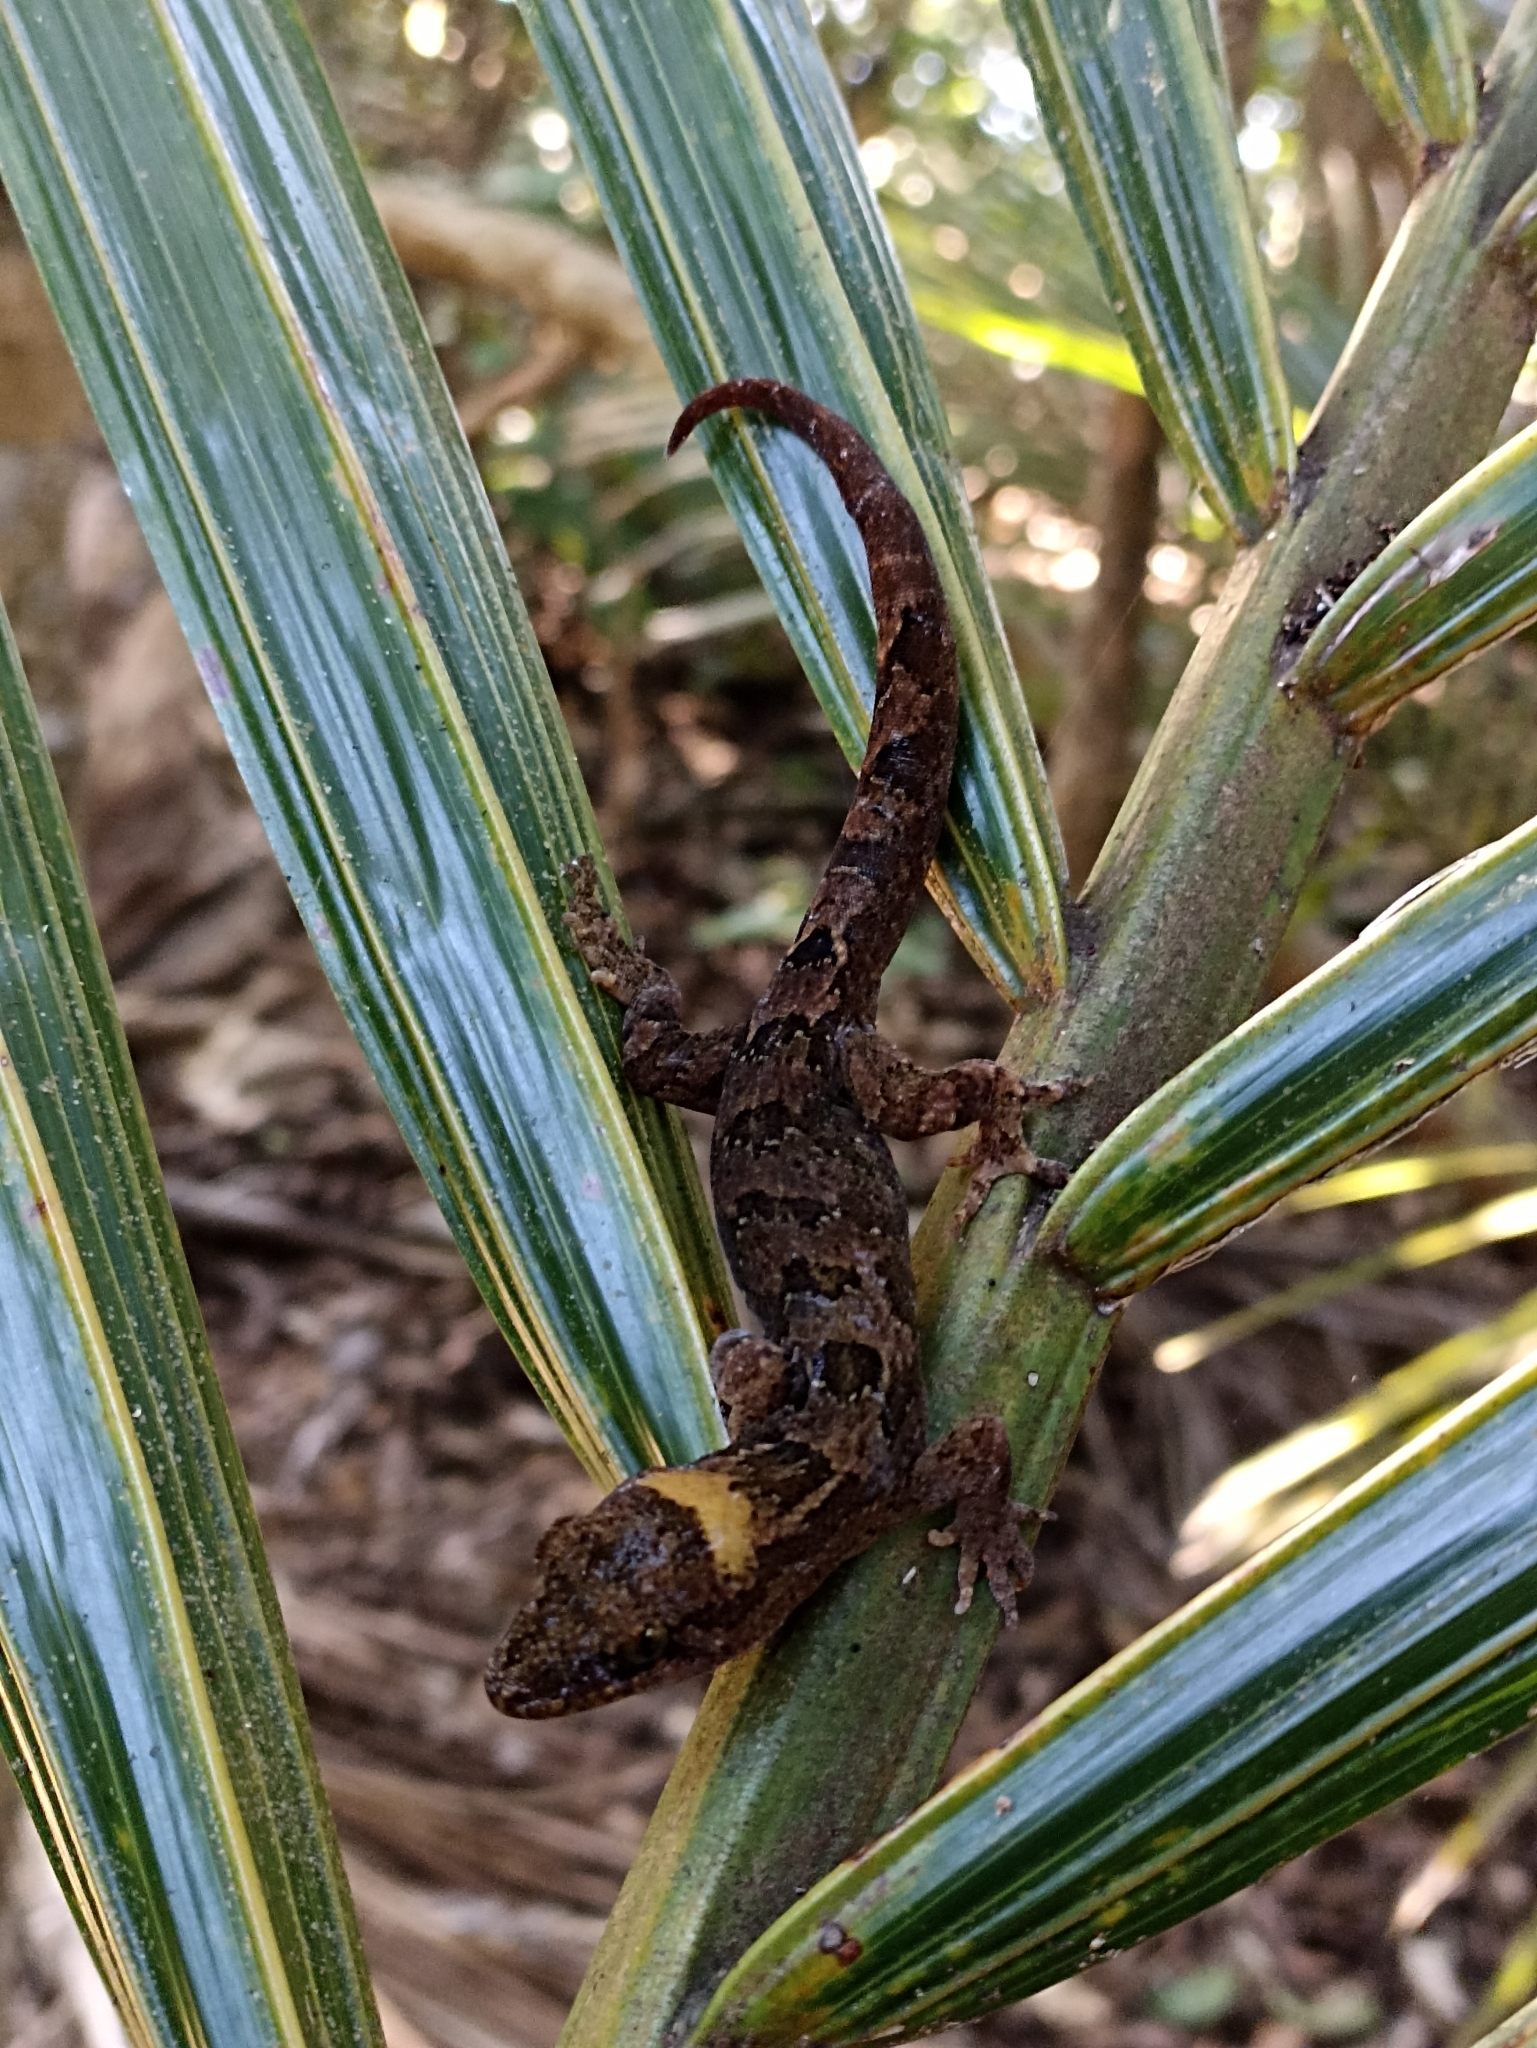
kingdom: Animalia
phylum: Chordata
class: Squamata
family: Diplodactylidae
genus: Dactylocnemis
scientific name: Dactylocnemis pacificus
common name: Pacific gecko
